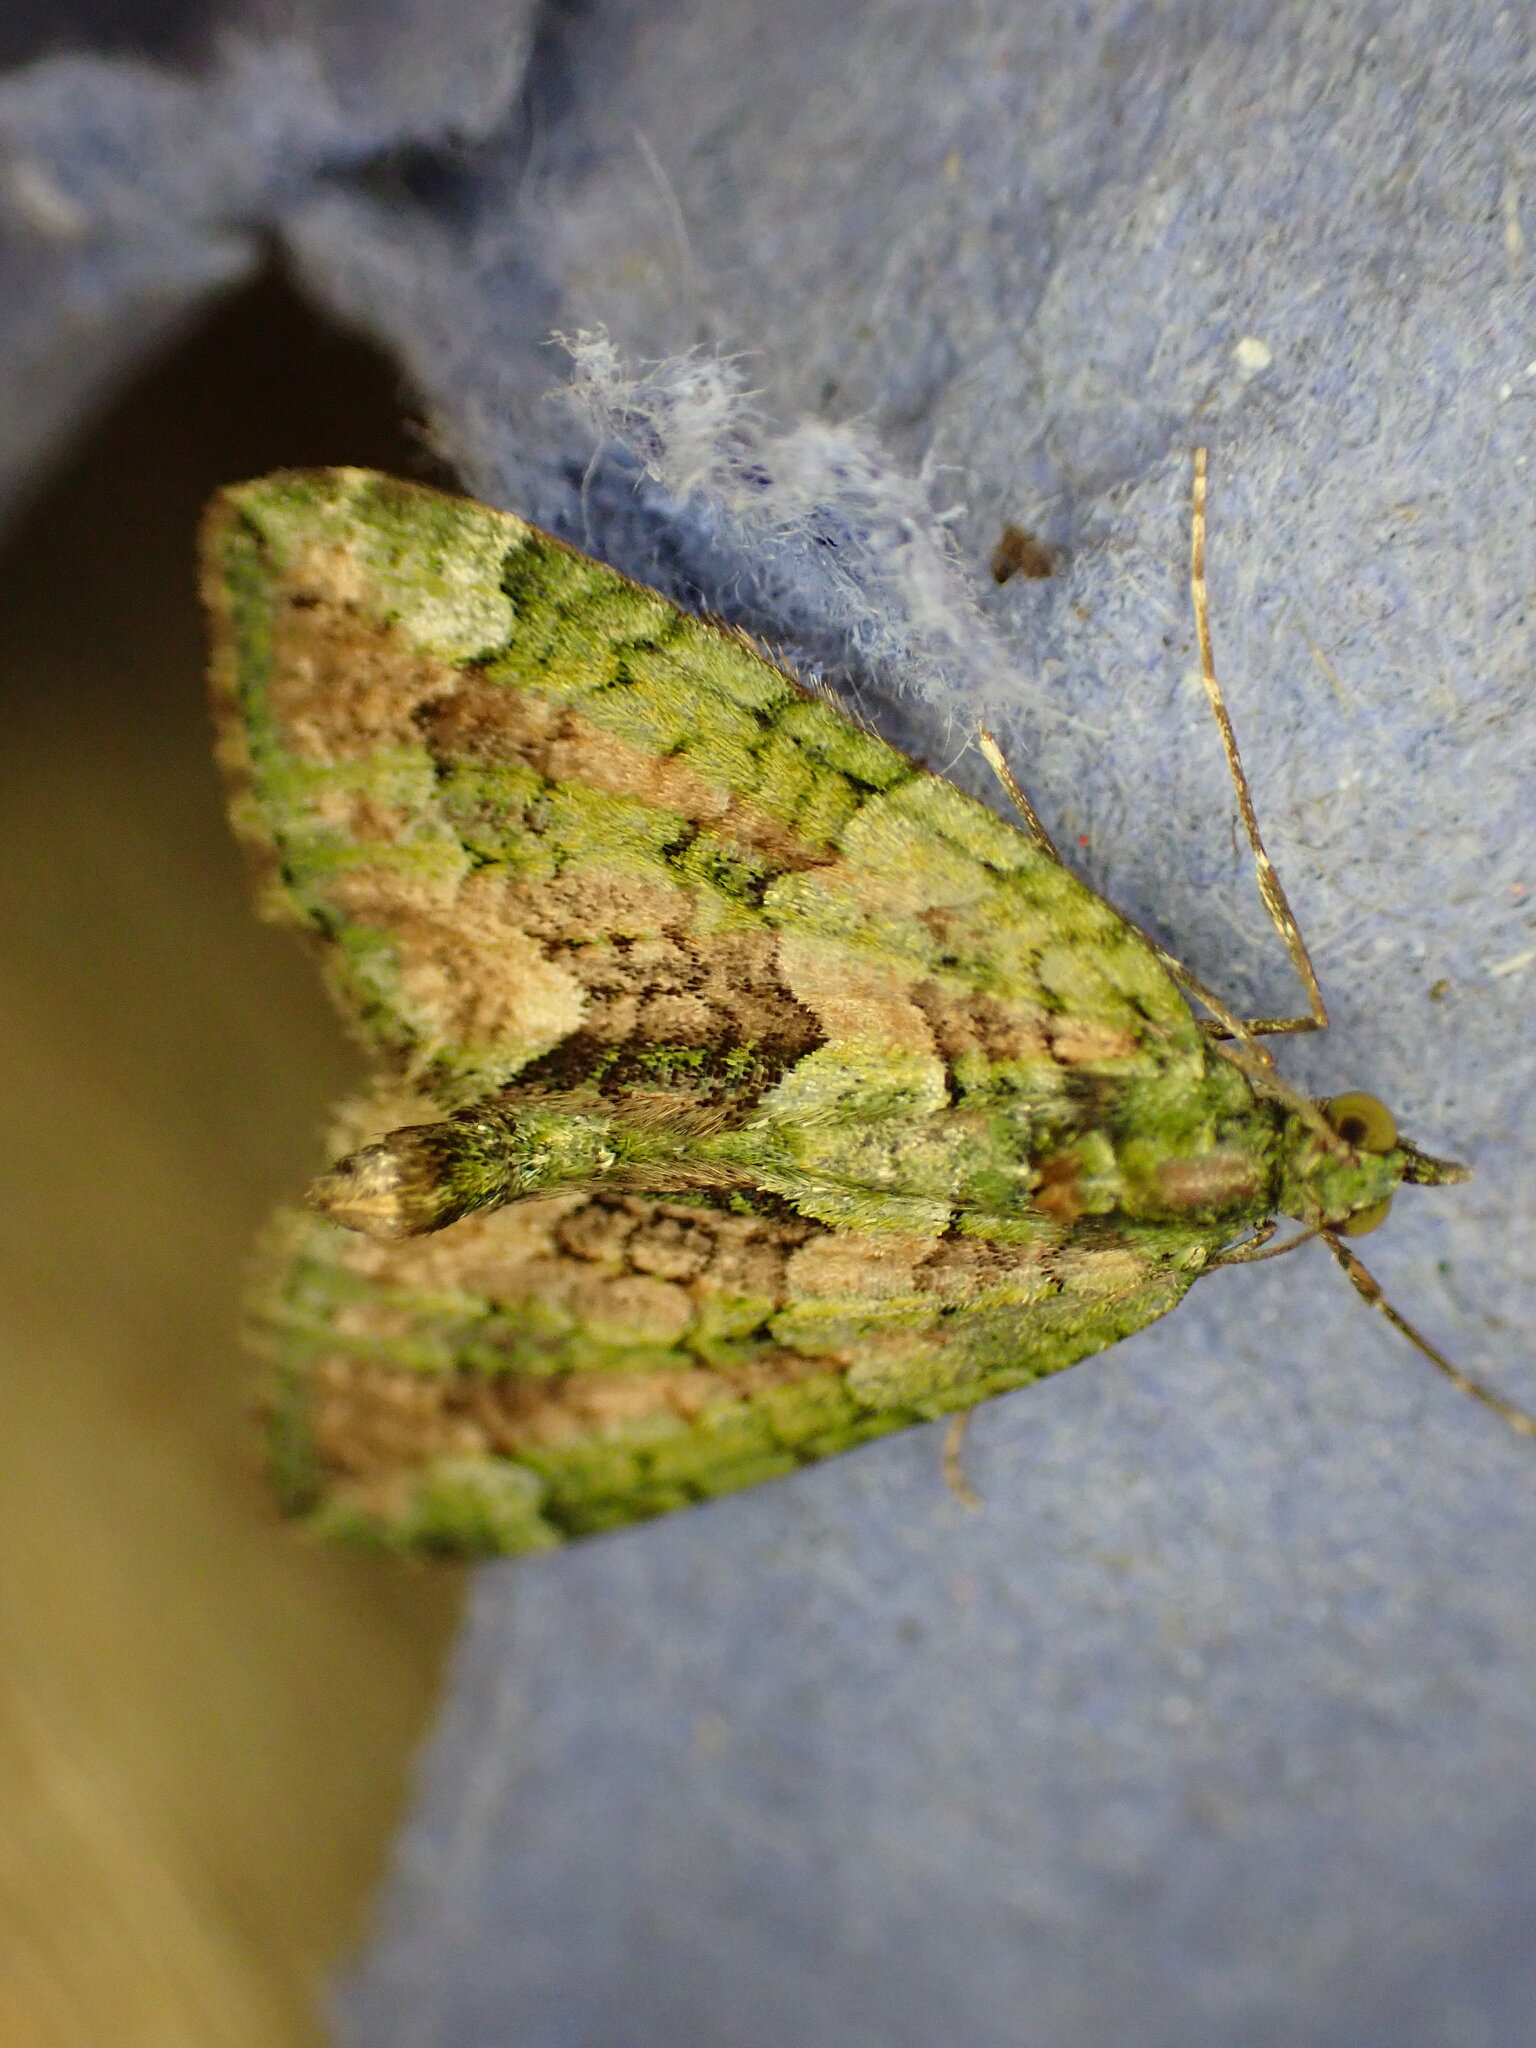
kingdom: Animalia
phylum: Arthropoda
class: Insecta
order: Lepidoptera
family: Geometridae
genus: Chloroclysta
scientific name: Chloroclysta siterata
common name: Red-green carpet
